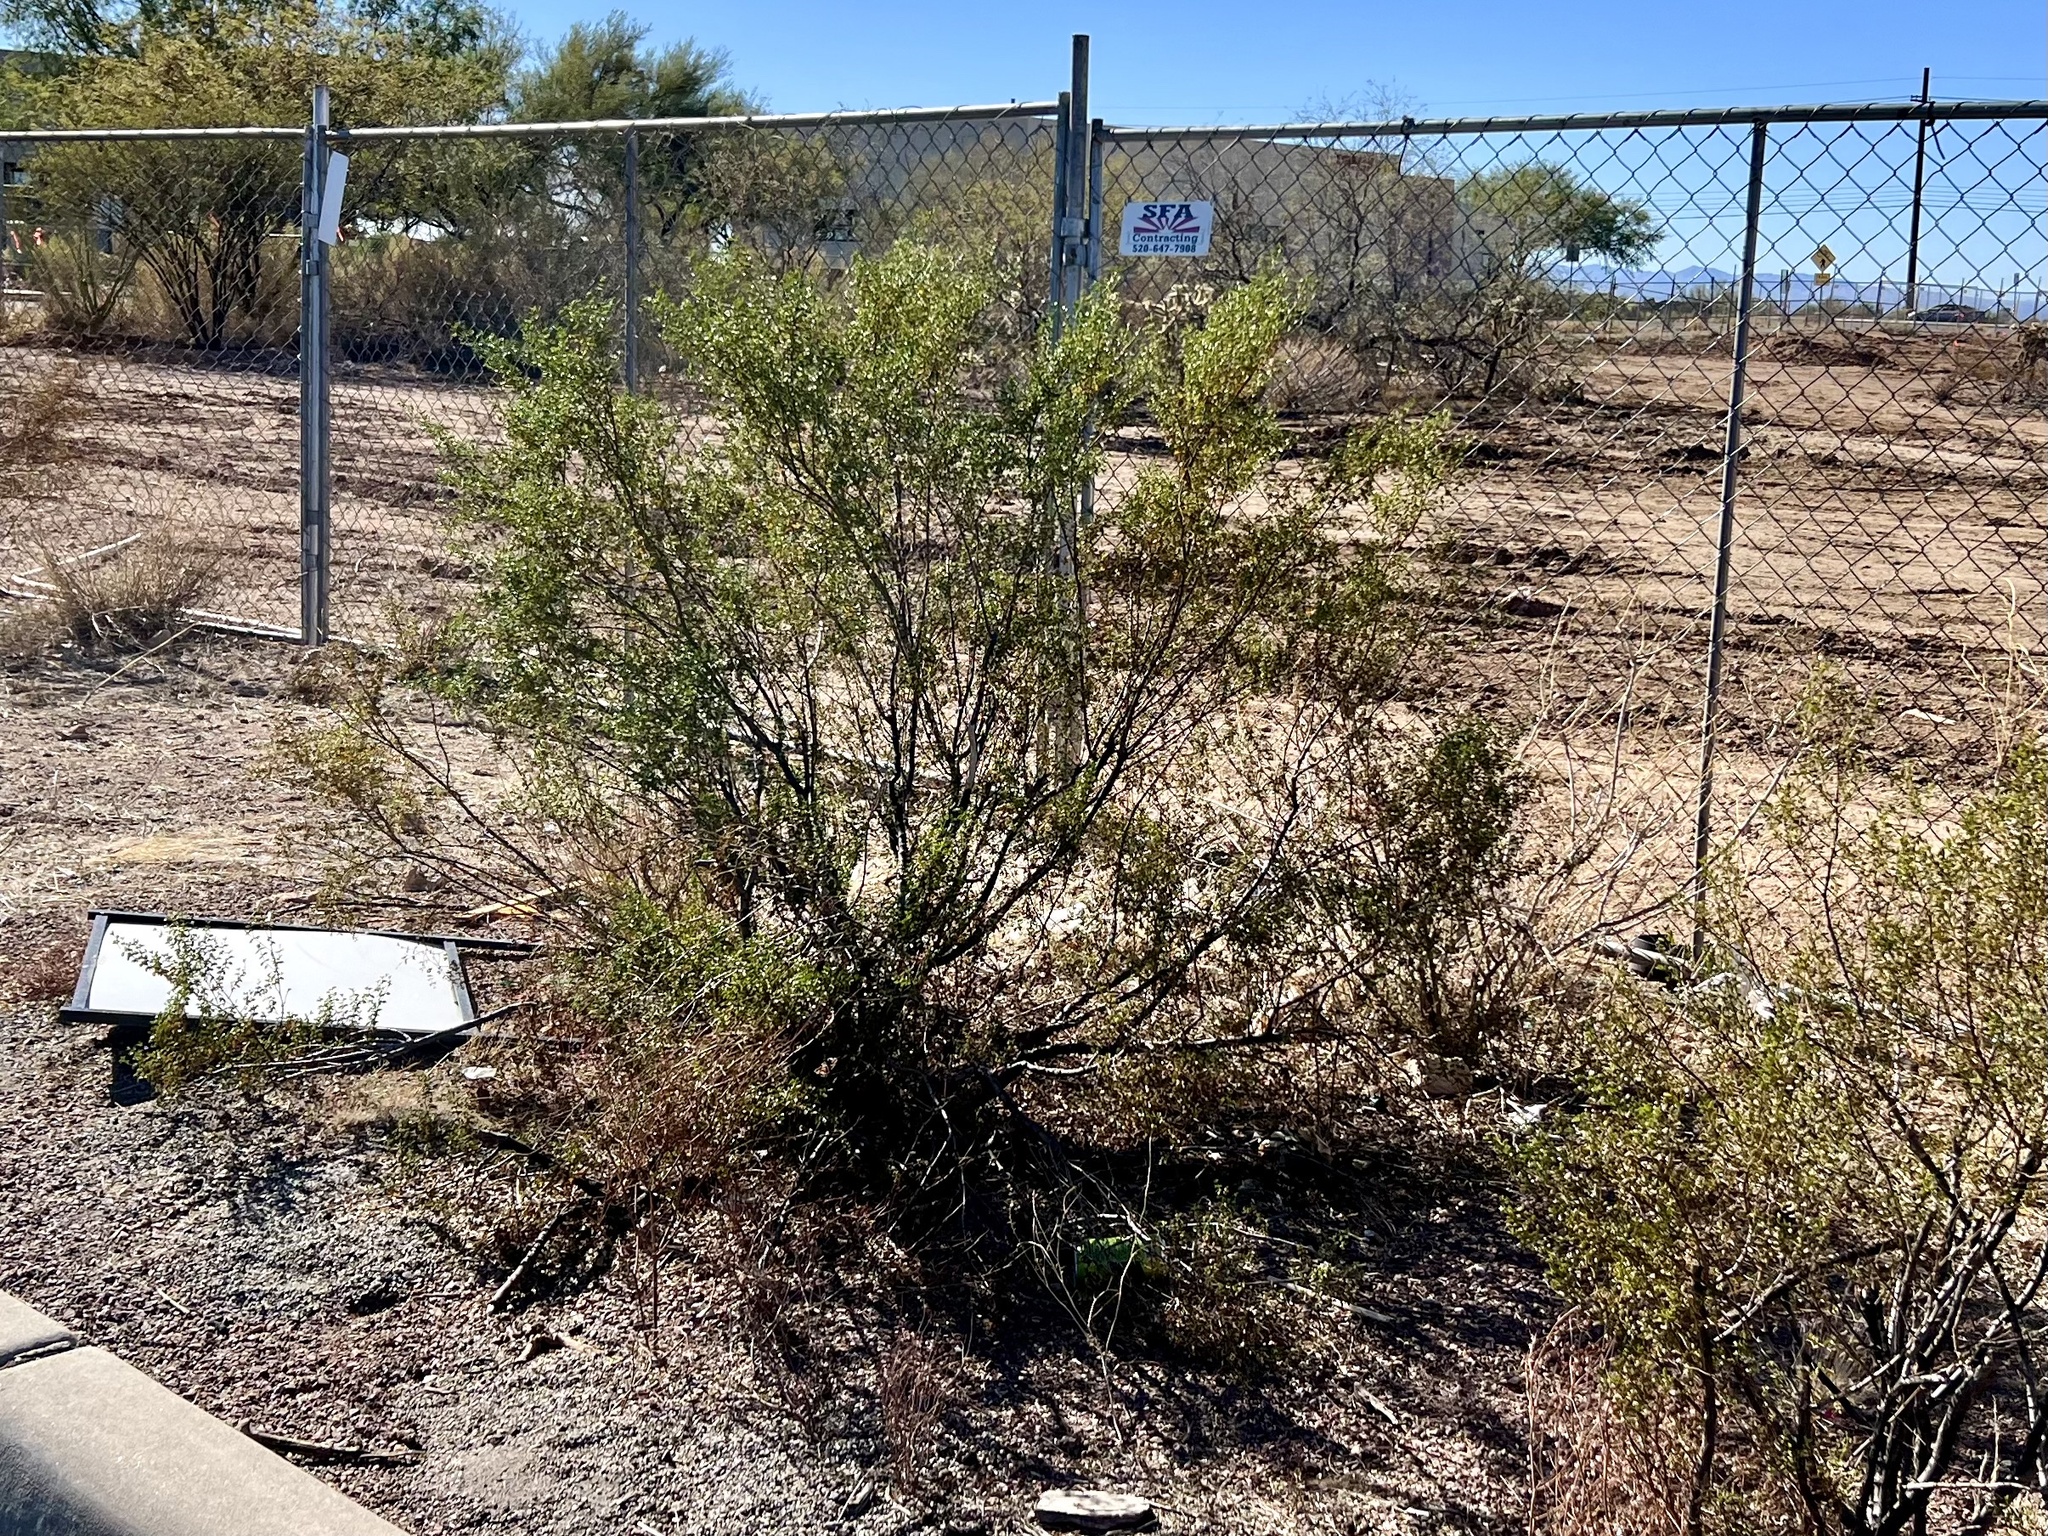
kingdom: Plantae
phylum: Tracheophyta
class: Magnoliopsida
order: Zygophyllales
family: Zygophyllaceae
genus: Larrea
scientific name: Larrea tridentata
